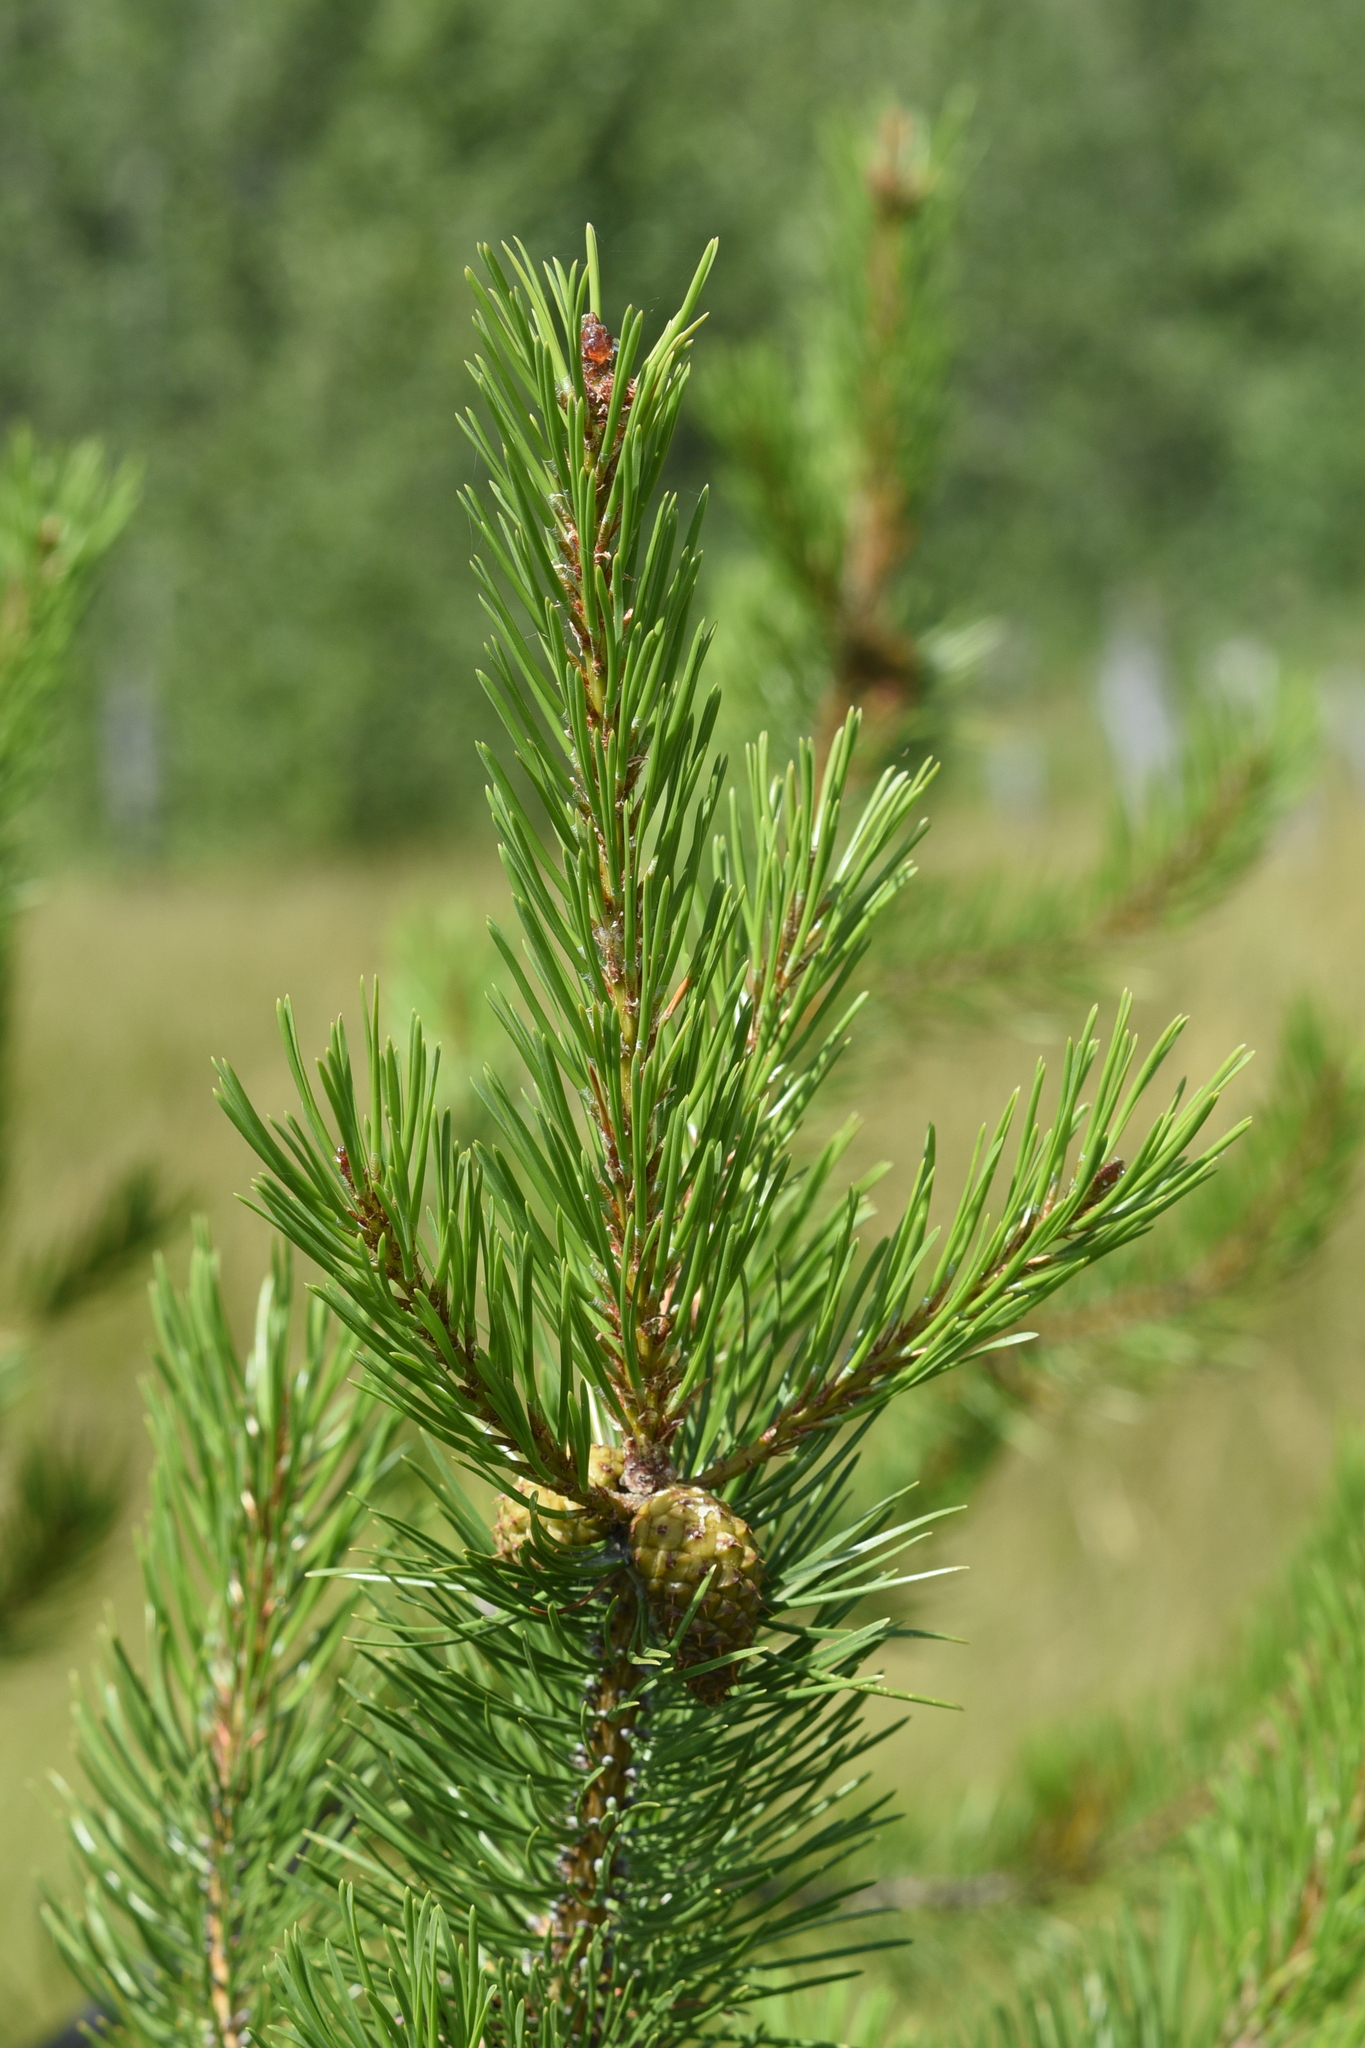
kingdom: Plantae
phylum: Tracheophyta
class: Pinopsida
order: Pinales
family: Pinaceae
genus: Pinus
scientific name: Pinus contorta
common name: Lodgepole pine
